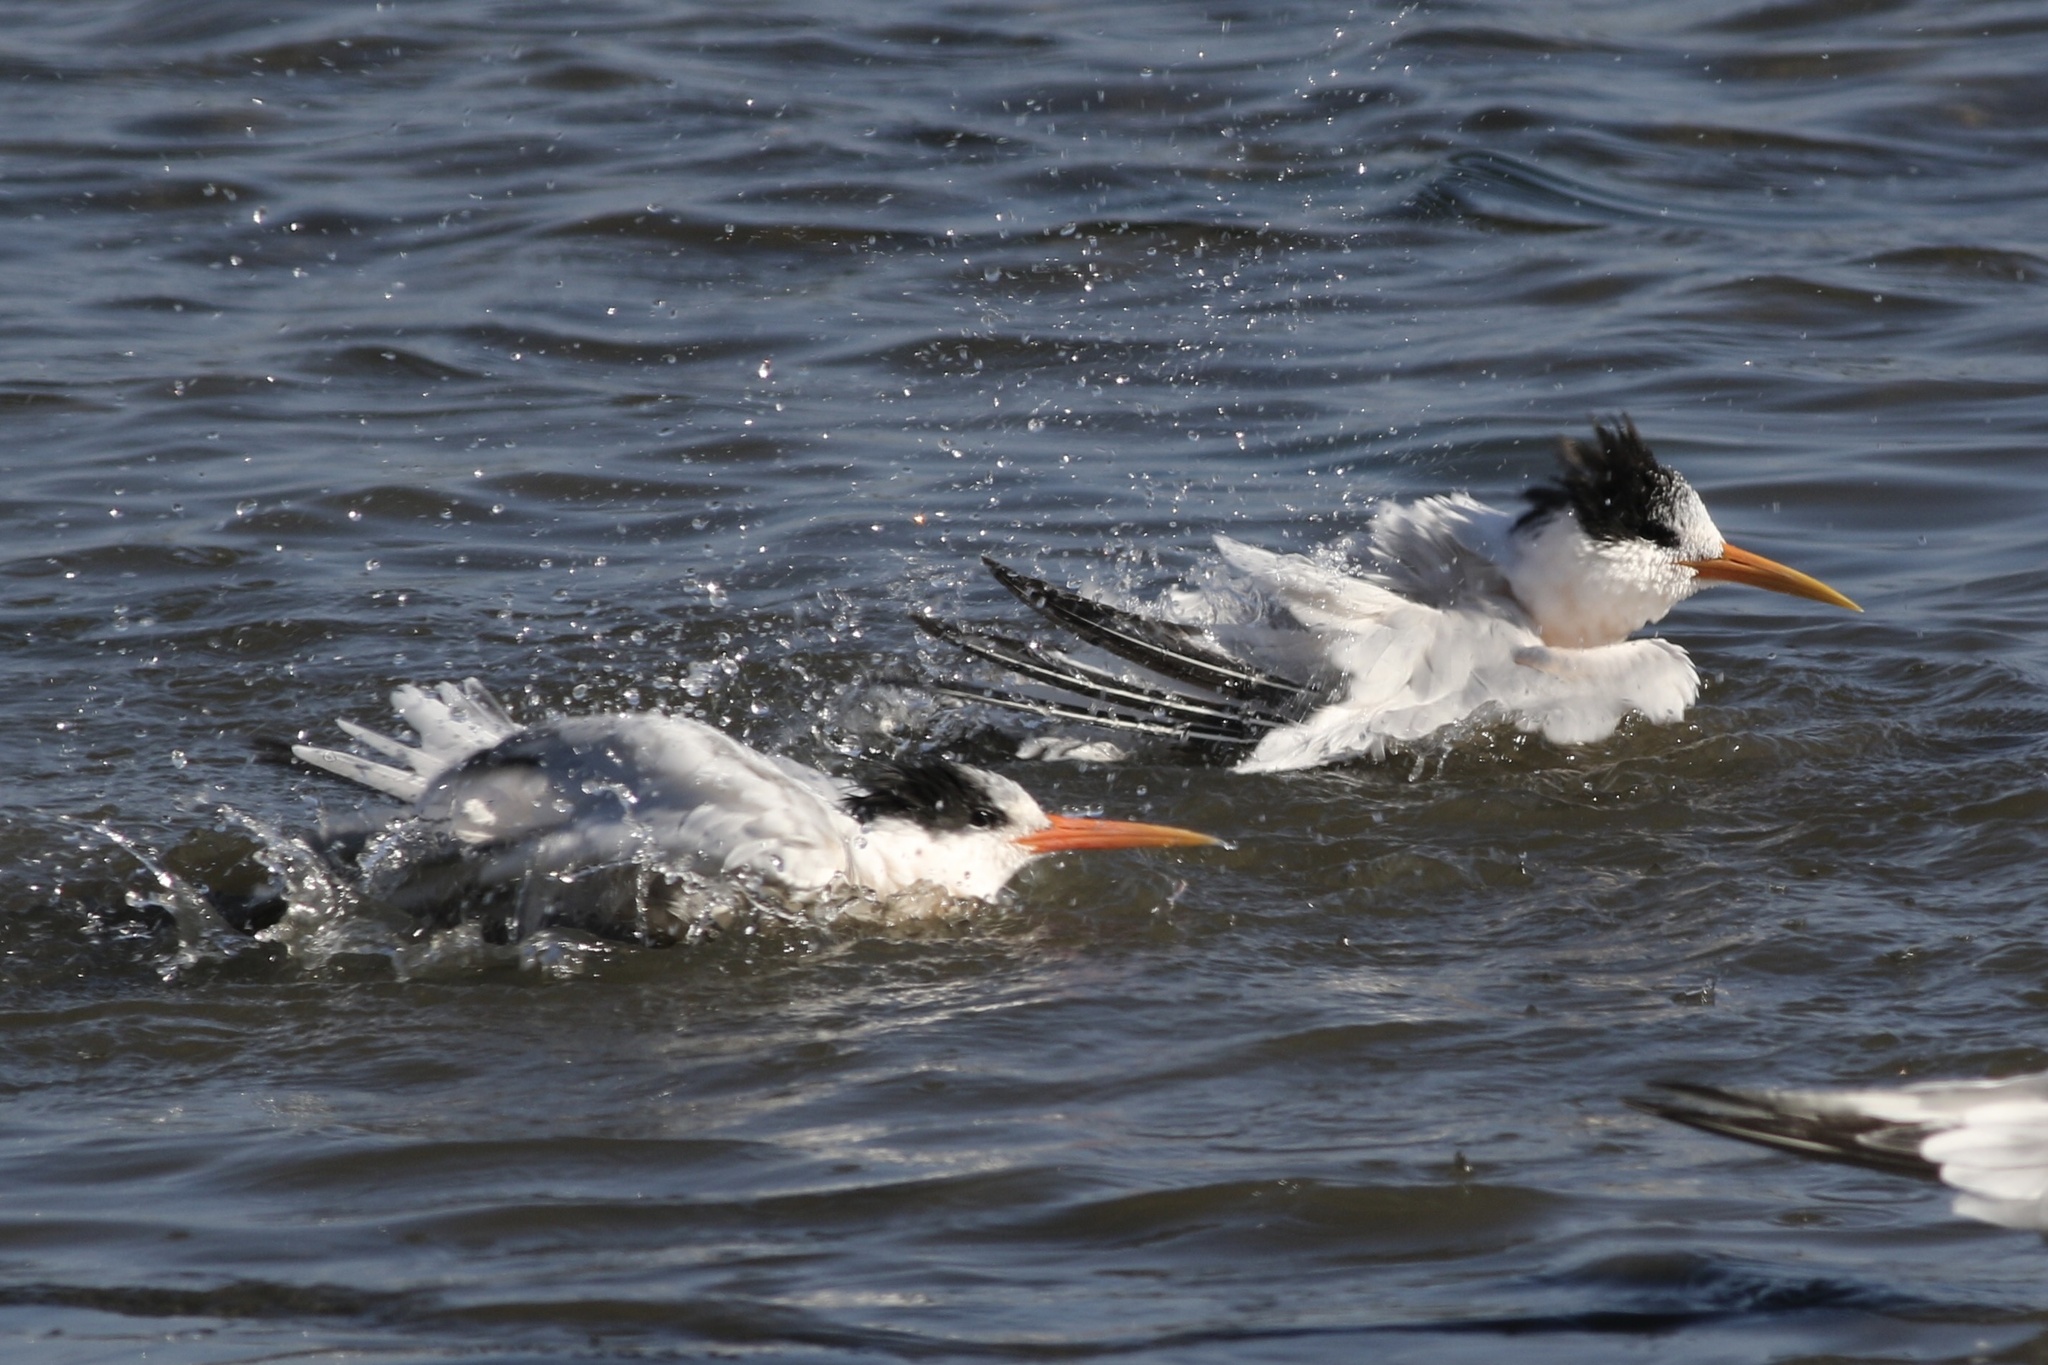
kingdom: Animalia
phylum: Chordata
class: Aves
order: Charadriiformes
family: Laridae
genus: Thalasseus
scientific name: Thalasseus elegans
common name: Elegant tern
